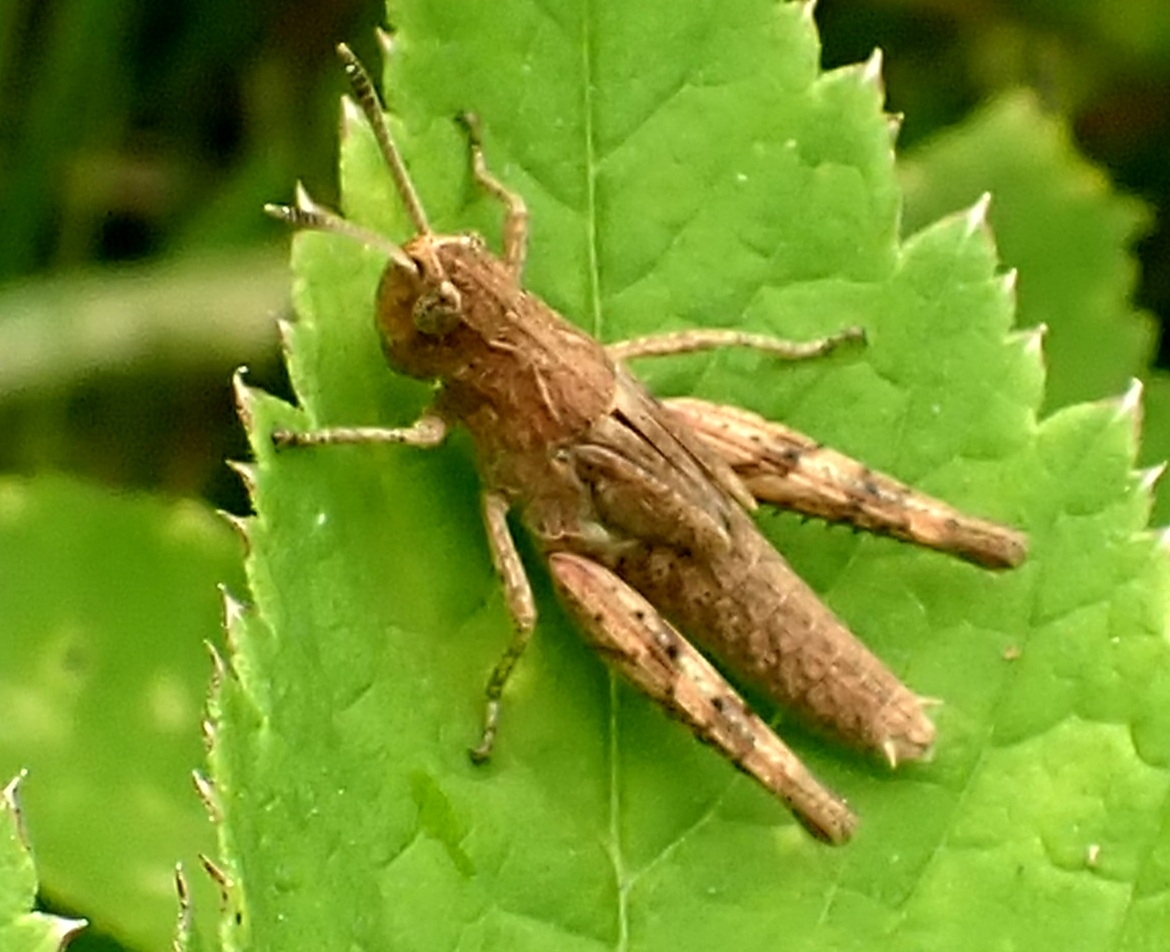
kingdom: Animalia
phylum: Arthropoda
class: Insecta
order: Orthoptera
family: Acrididae
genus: Gomphocerippus
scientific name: Gomphocerippus rufus
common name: Rufous grasshopper
